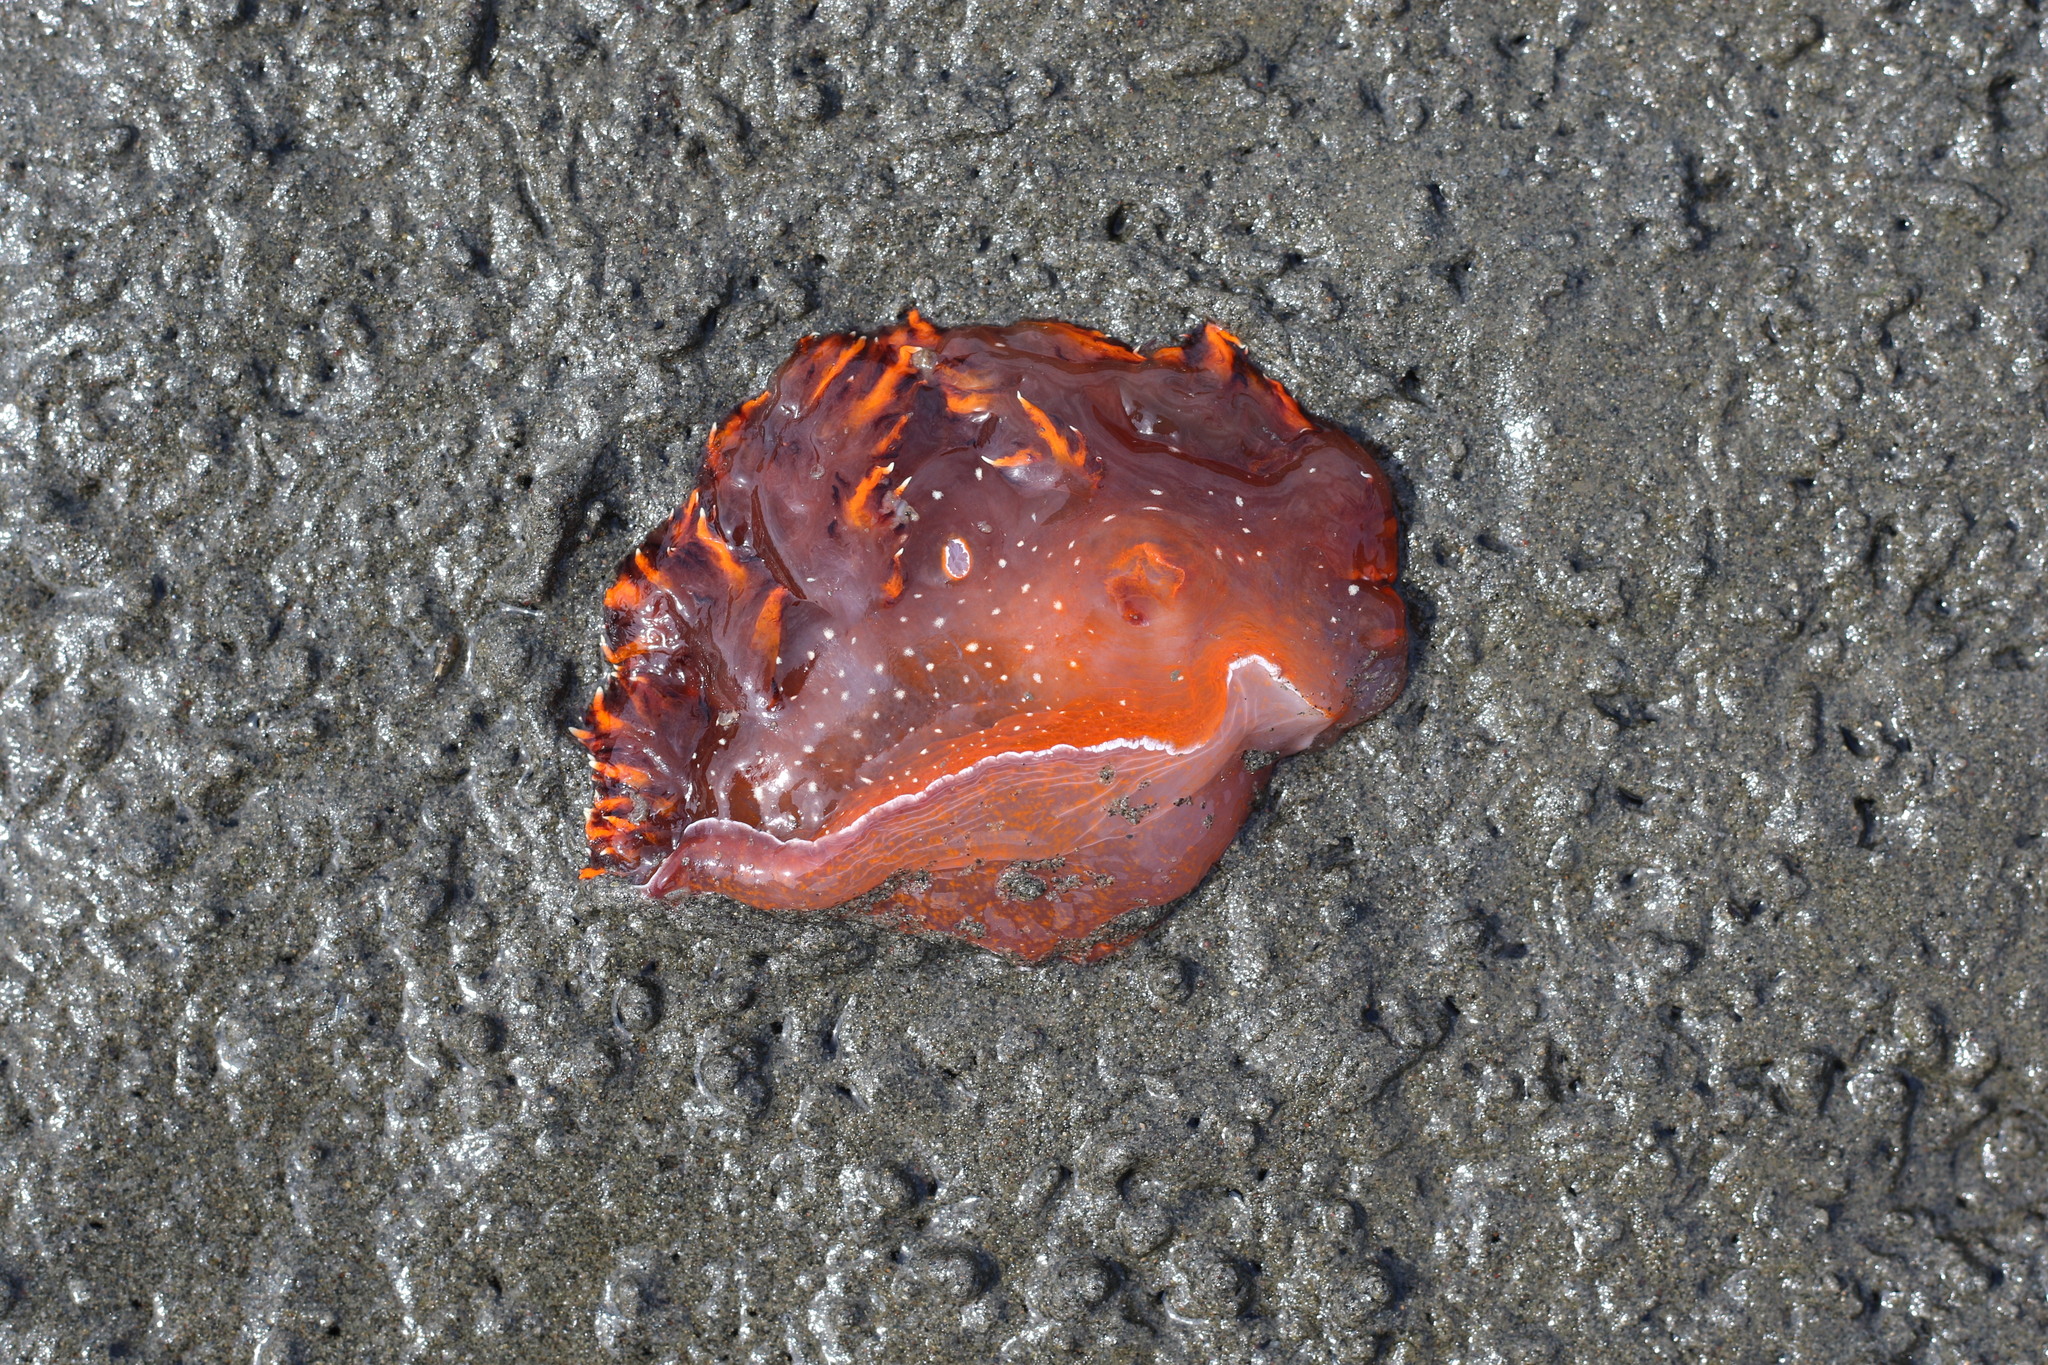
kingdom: Animalia
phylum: Mollusca
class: Gastropoda
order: Nudibranchia
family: Dendronotidae
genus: Dendronotus
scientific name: Dendronotus iris
